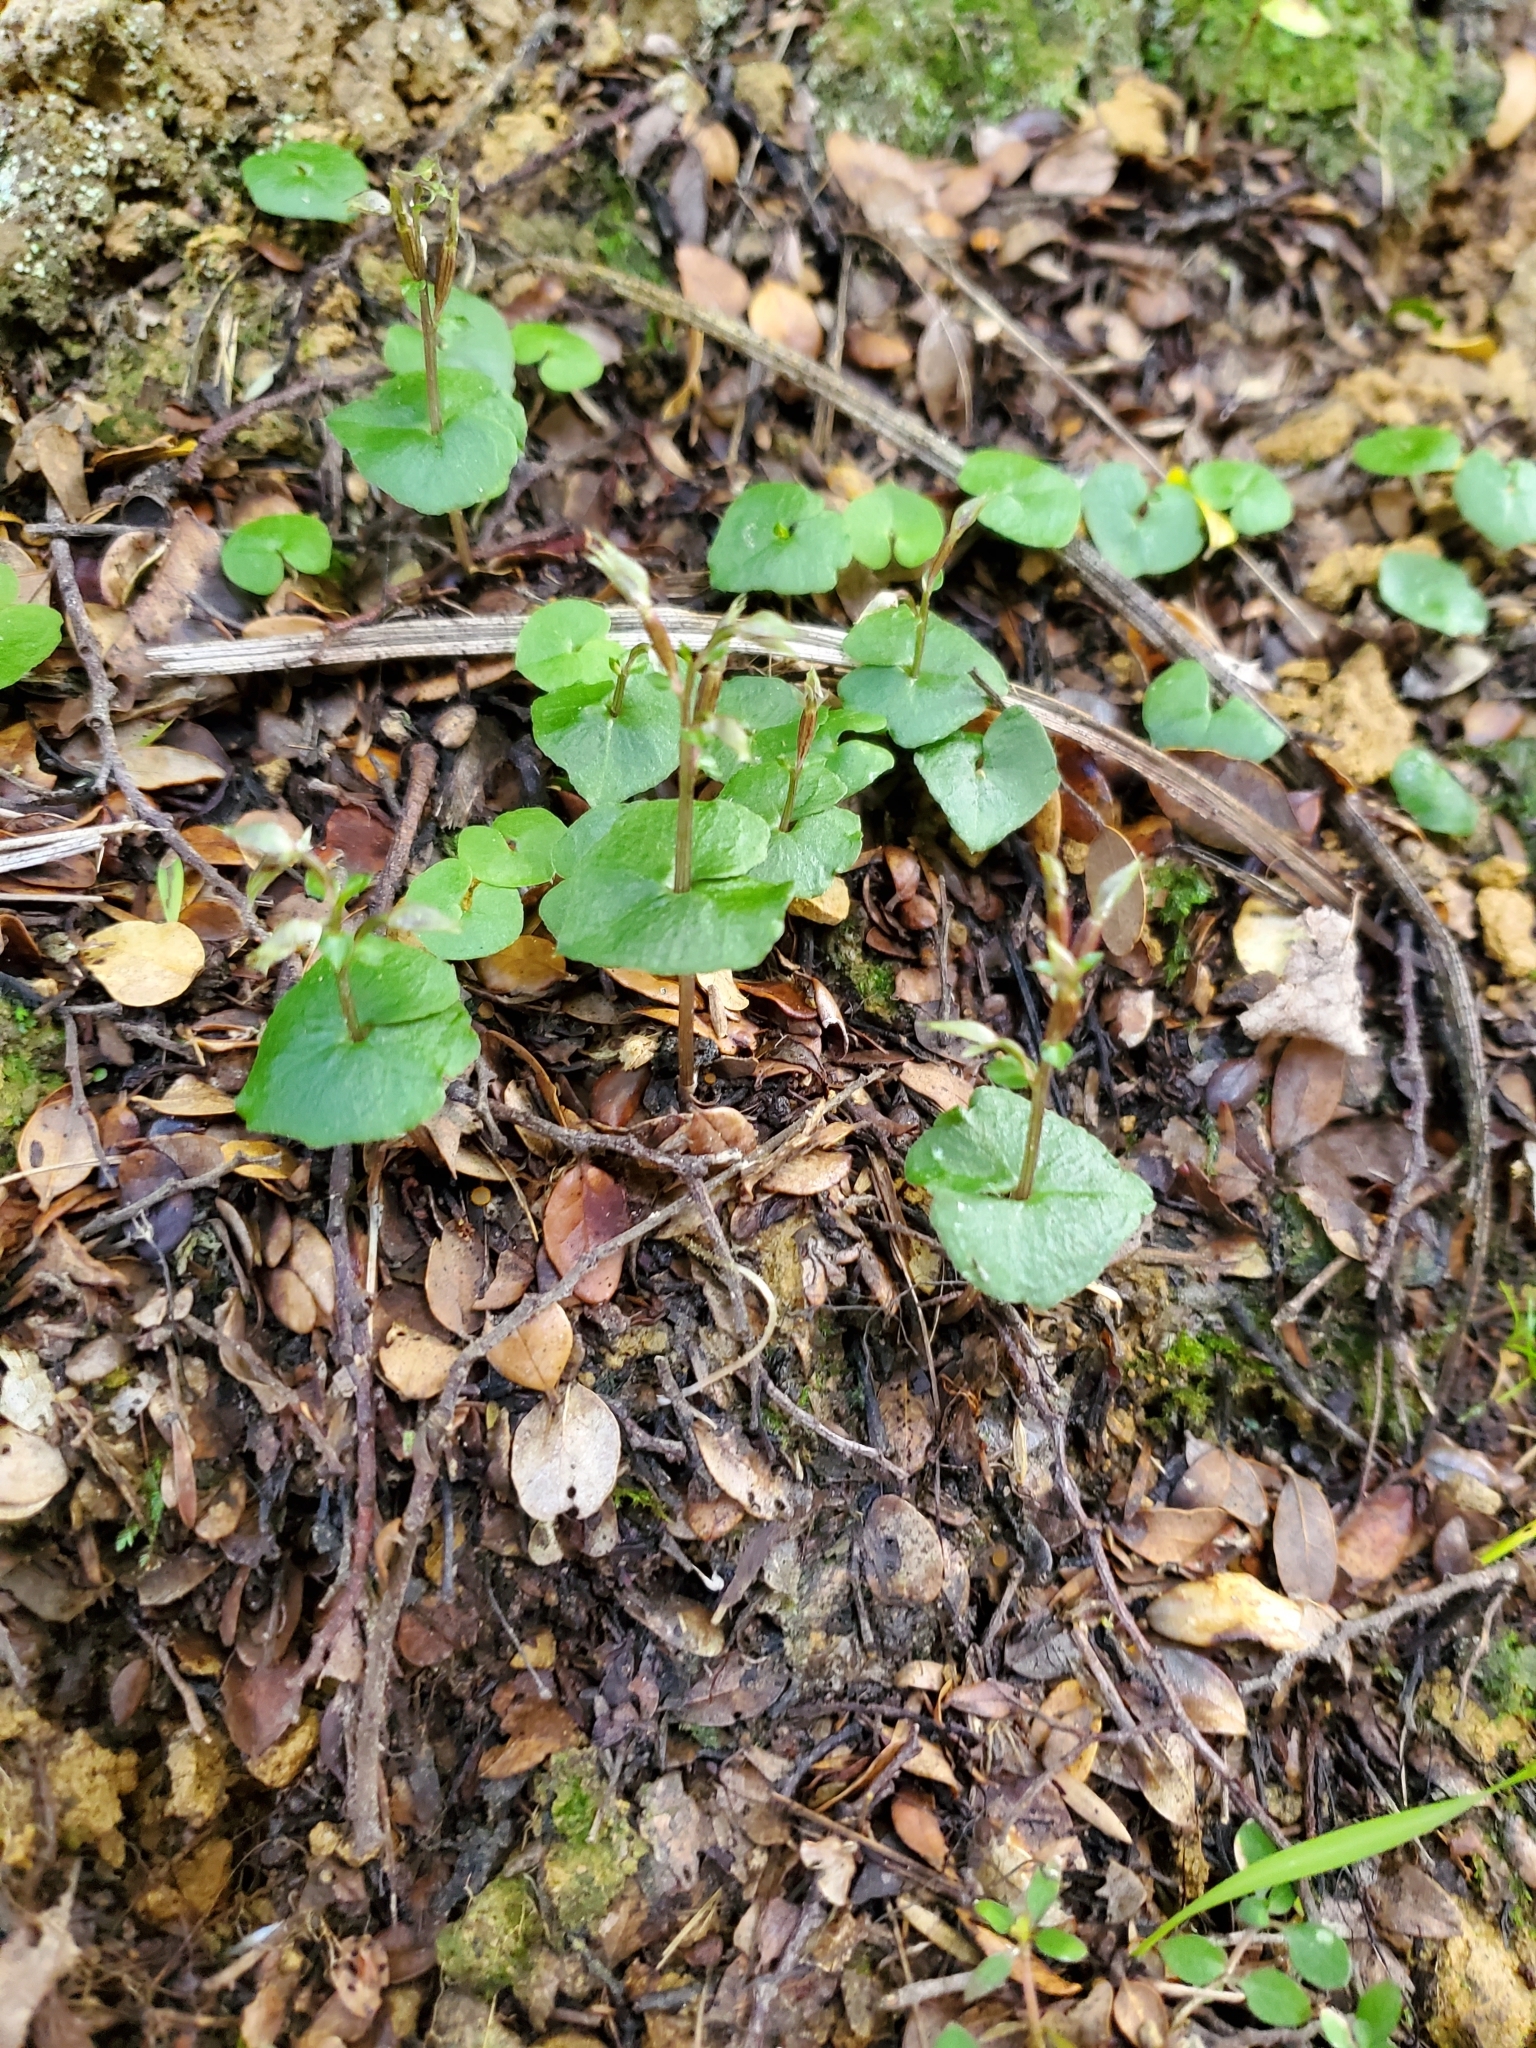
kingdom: Plantae
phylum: Tracheophyta
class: Liliopsida
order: Asparagales
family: Orchidaceae
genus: Acianthus
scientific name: Acianthus sinclairii
